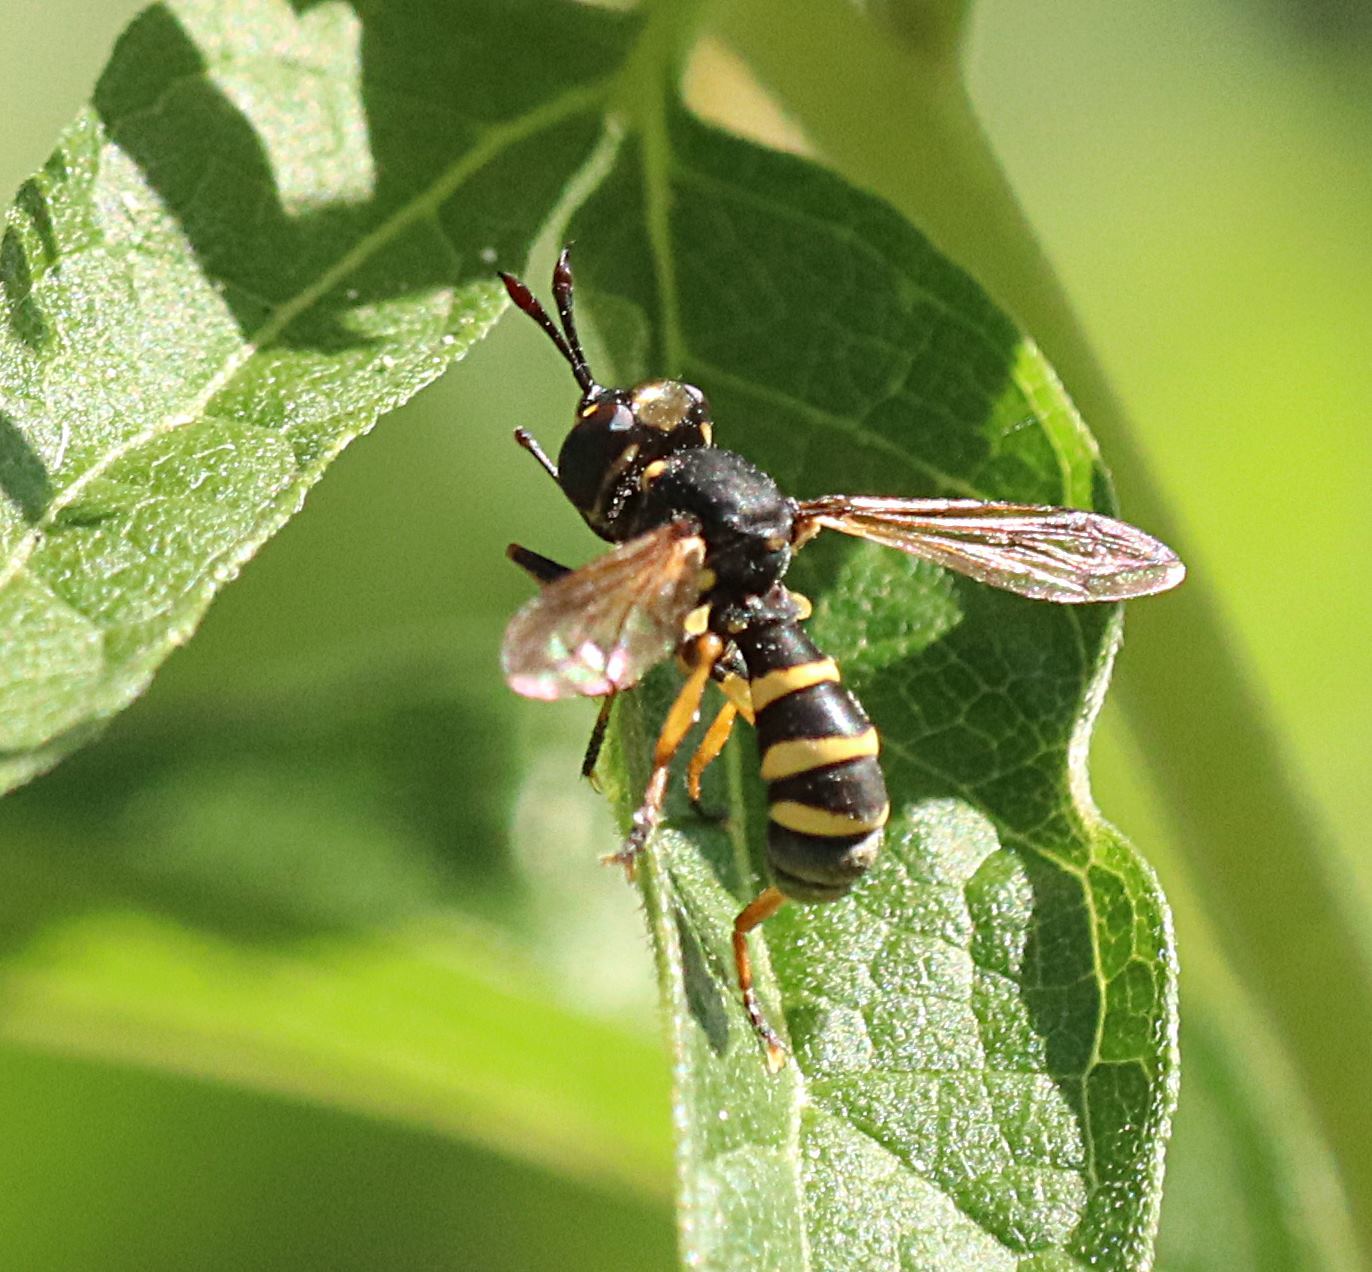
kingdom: Animalia
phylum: Arthropoda
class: Insecta
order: Diptera
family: Conopidae
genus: Conops
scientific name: Conops flavipes
